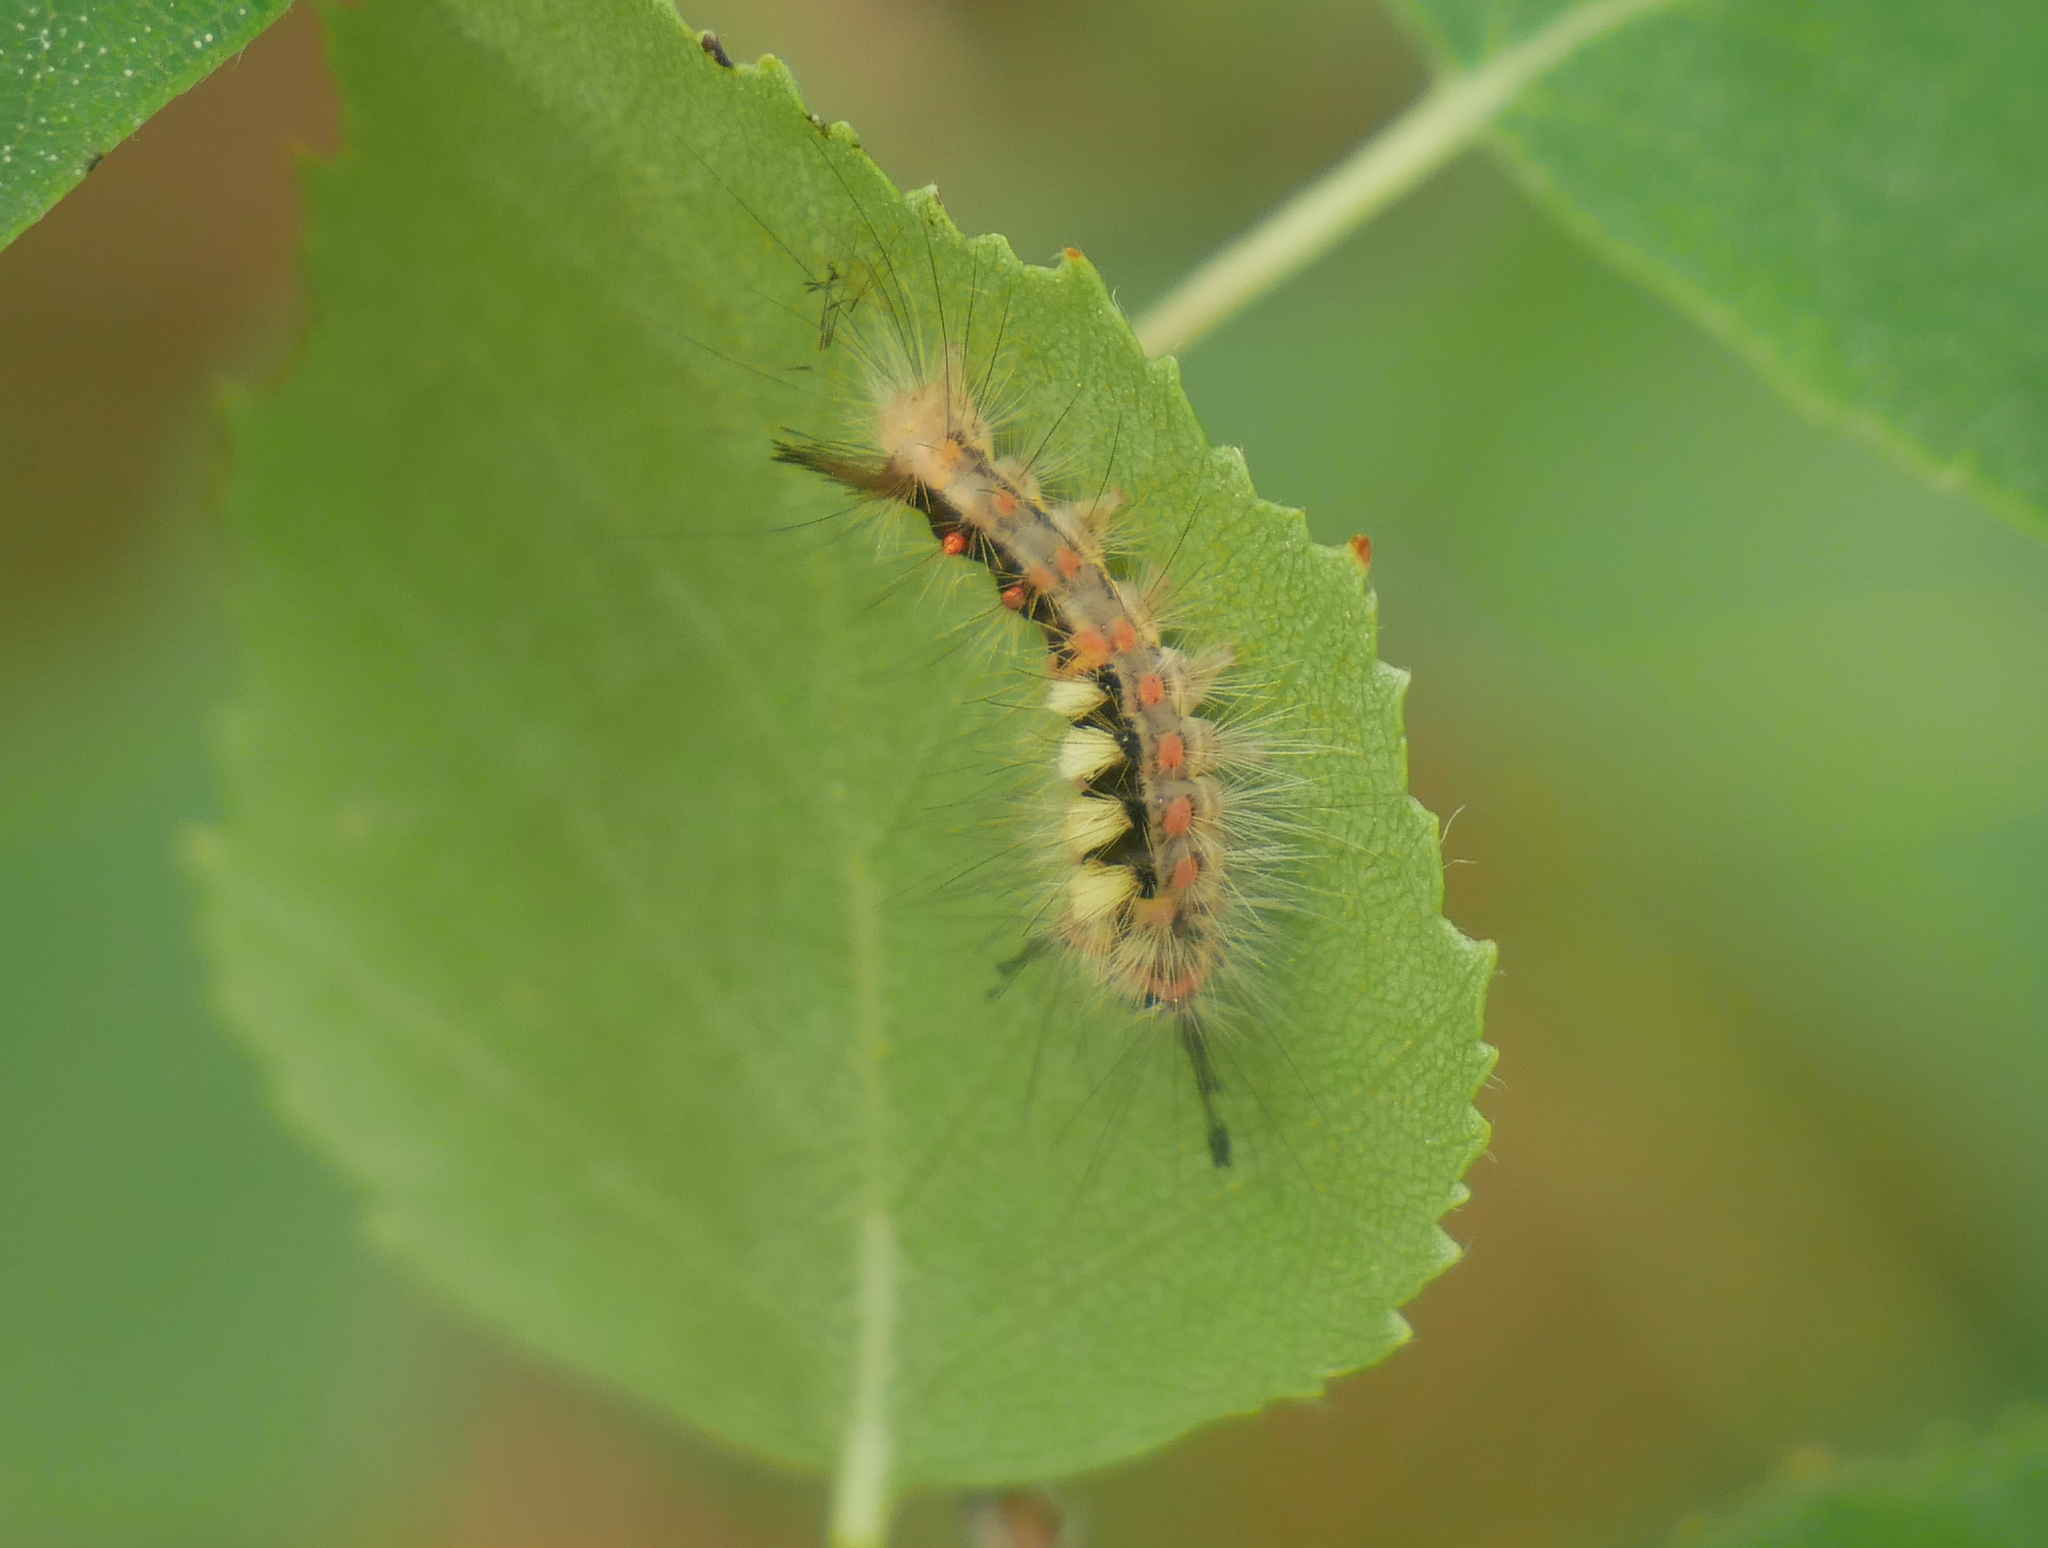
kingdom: Animalia
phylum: Arthropoda
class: Insecta
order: Lepidoptera
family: Erebidae
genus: Orgyia
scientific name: Orgyia antiqua
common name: Vapourer
